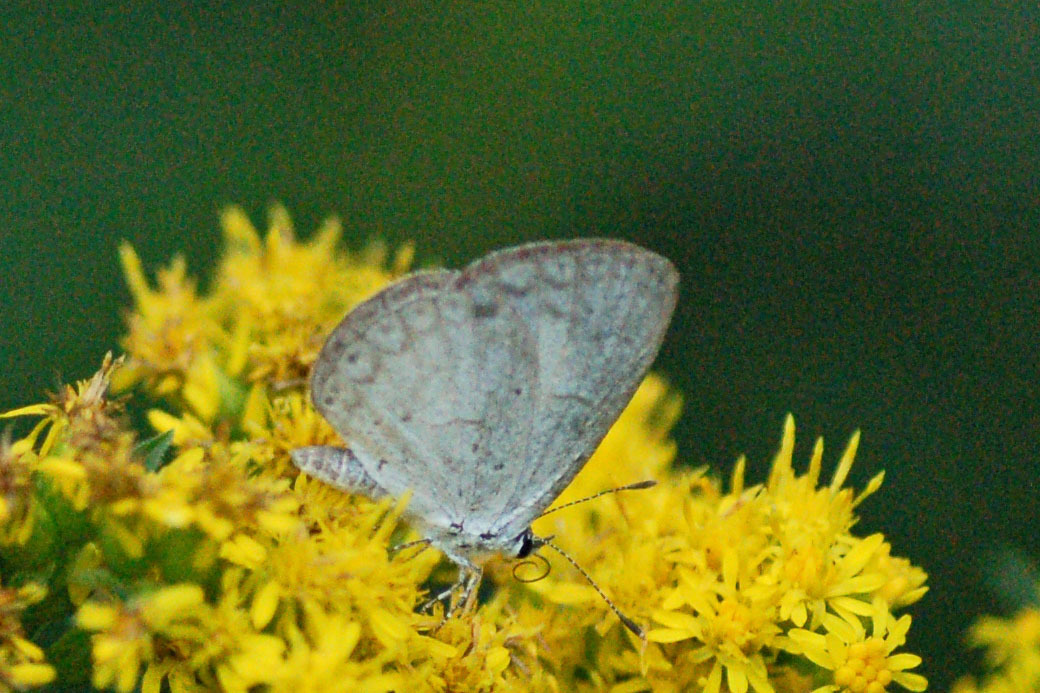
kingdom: Animalia
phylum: Arthropoda
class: Insecta
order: Lepidoptera
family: Lycaenidae
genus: Cyaniris
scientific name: Cyaniris neglecta
